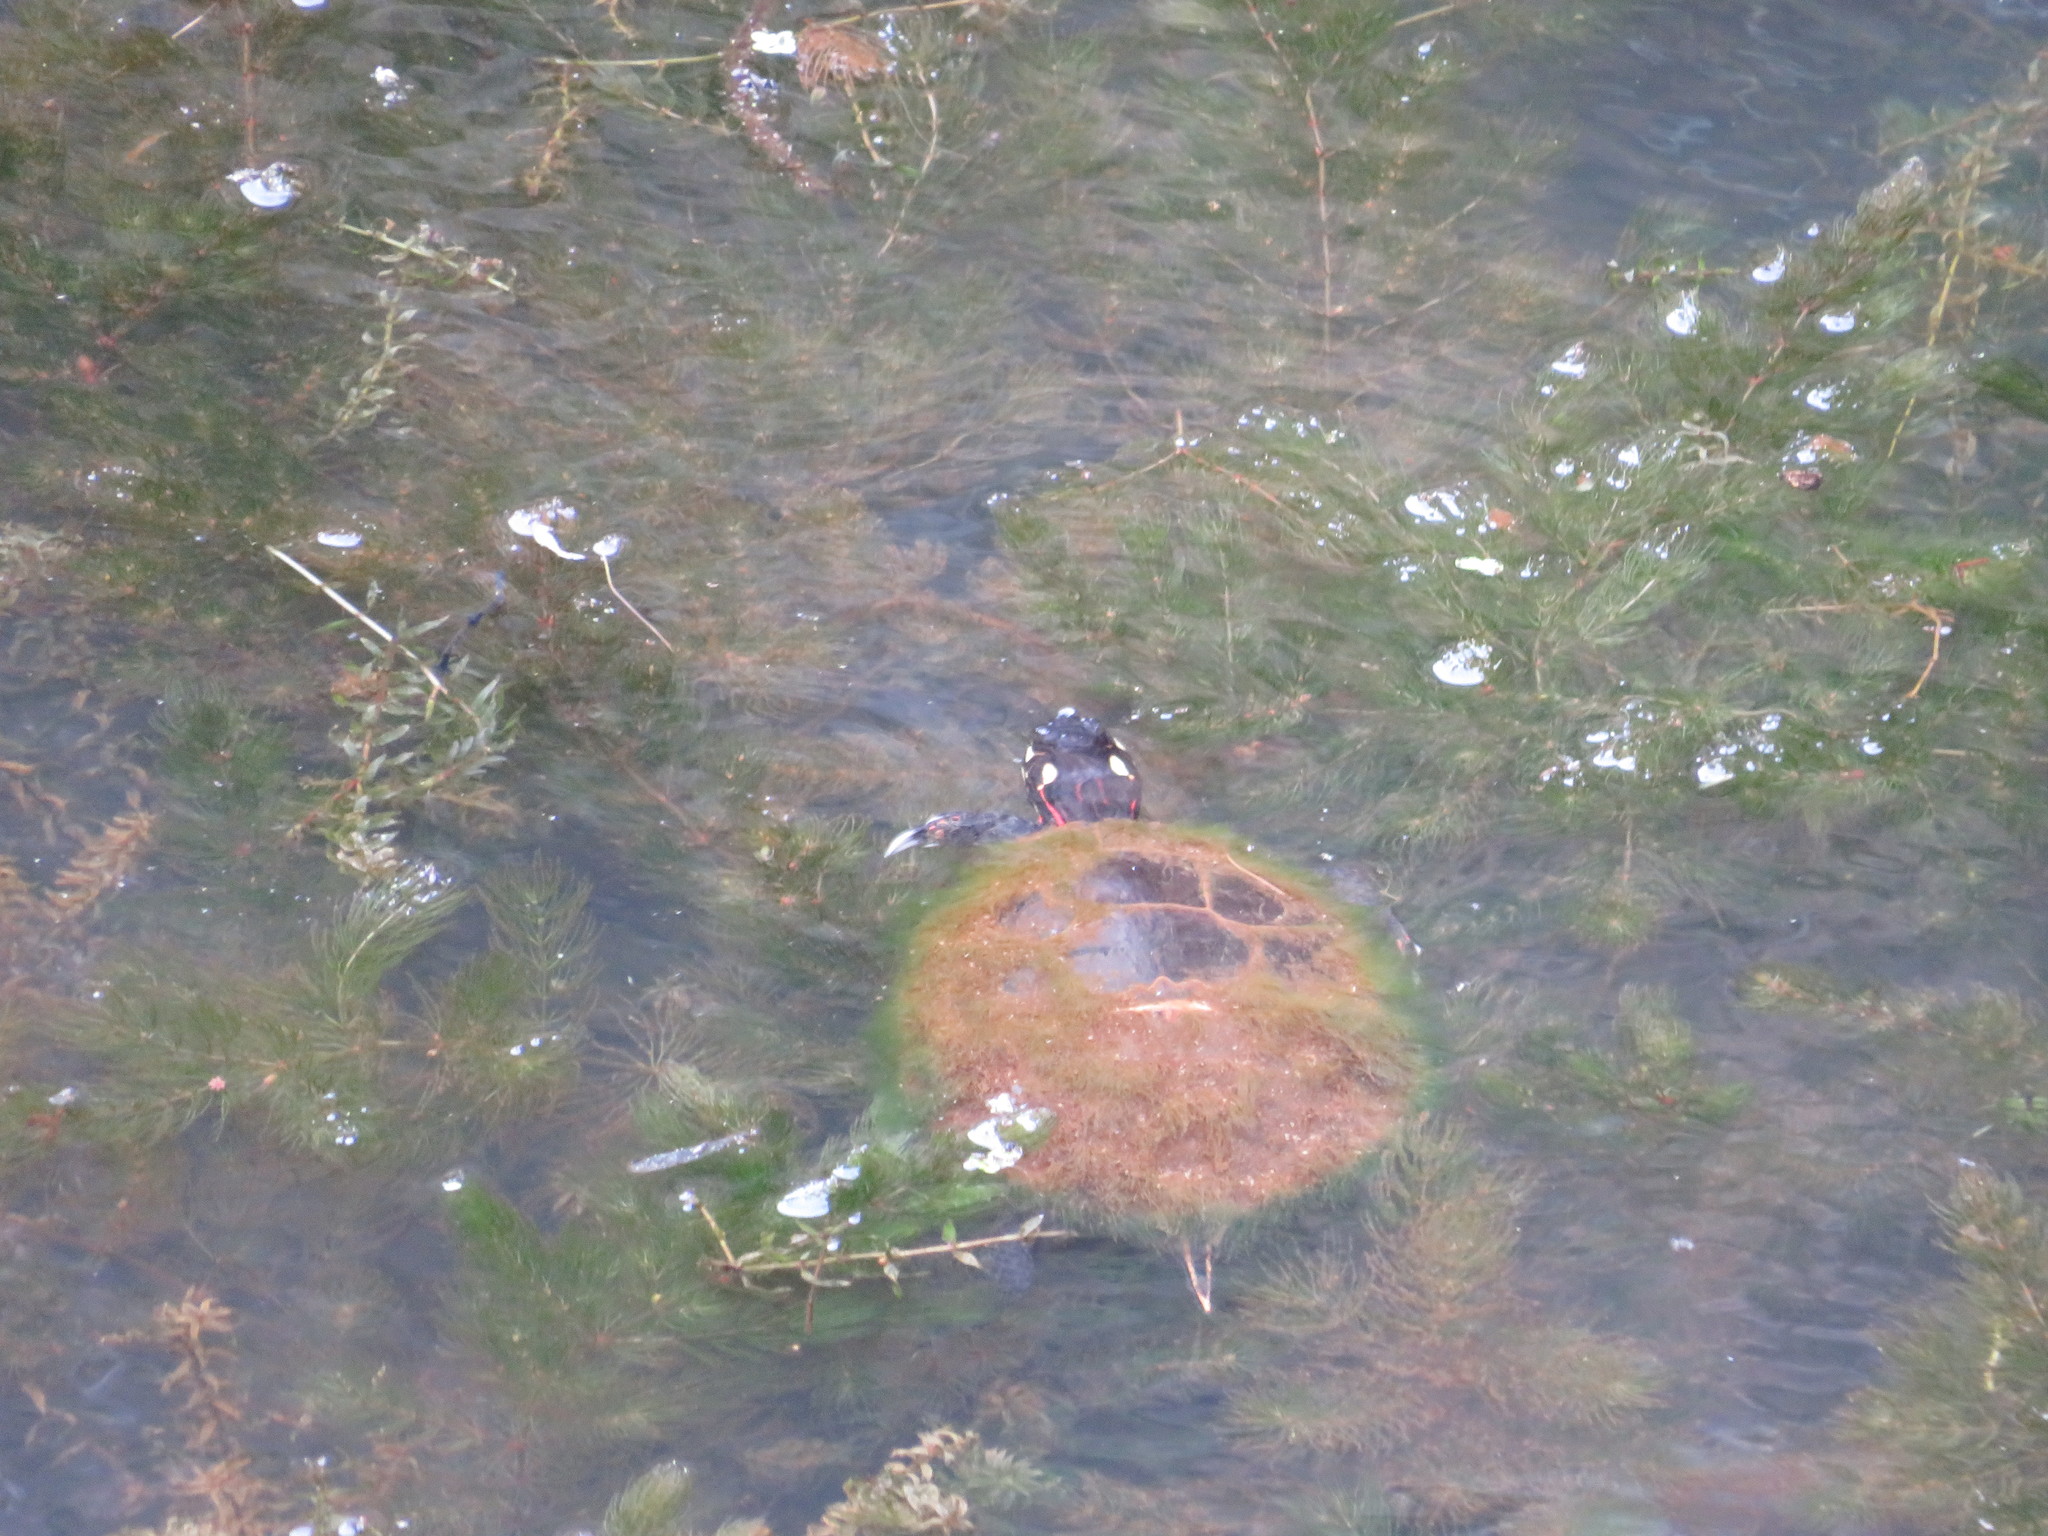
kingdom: Animalia
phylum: Chordata
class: Testudines
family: Emydidae
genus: Chrysemys
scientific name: Chrysemys picta
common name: Painted turtle
